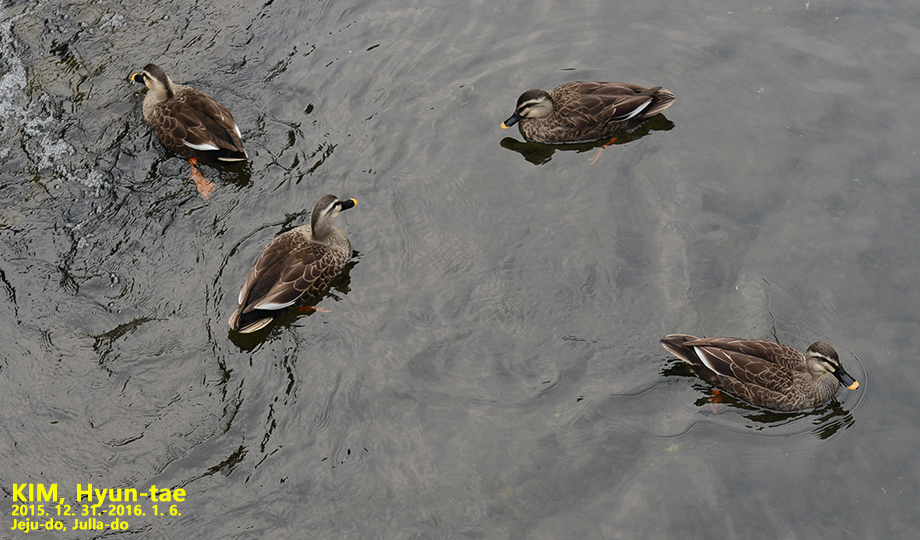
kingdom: Animalia
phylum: Chordata
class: Aves
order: Anseriformes
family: Anatidae
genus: Anas
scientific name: Anas zonorhyncha
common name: Eastern spot-billed duck
